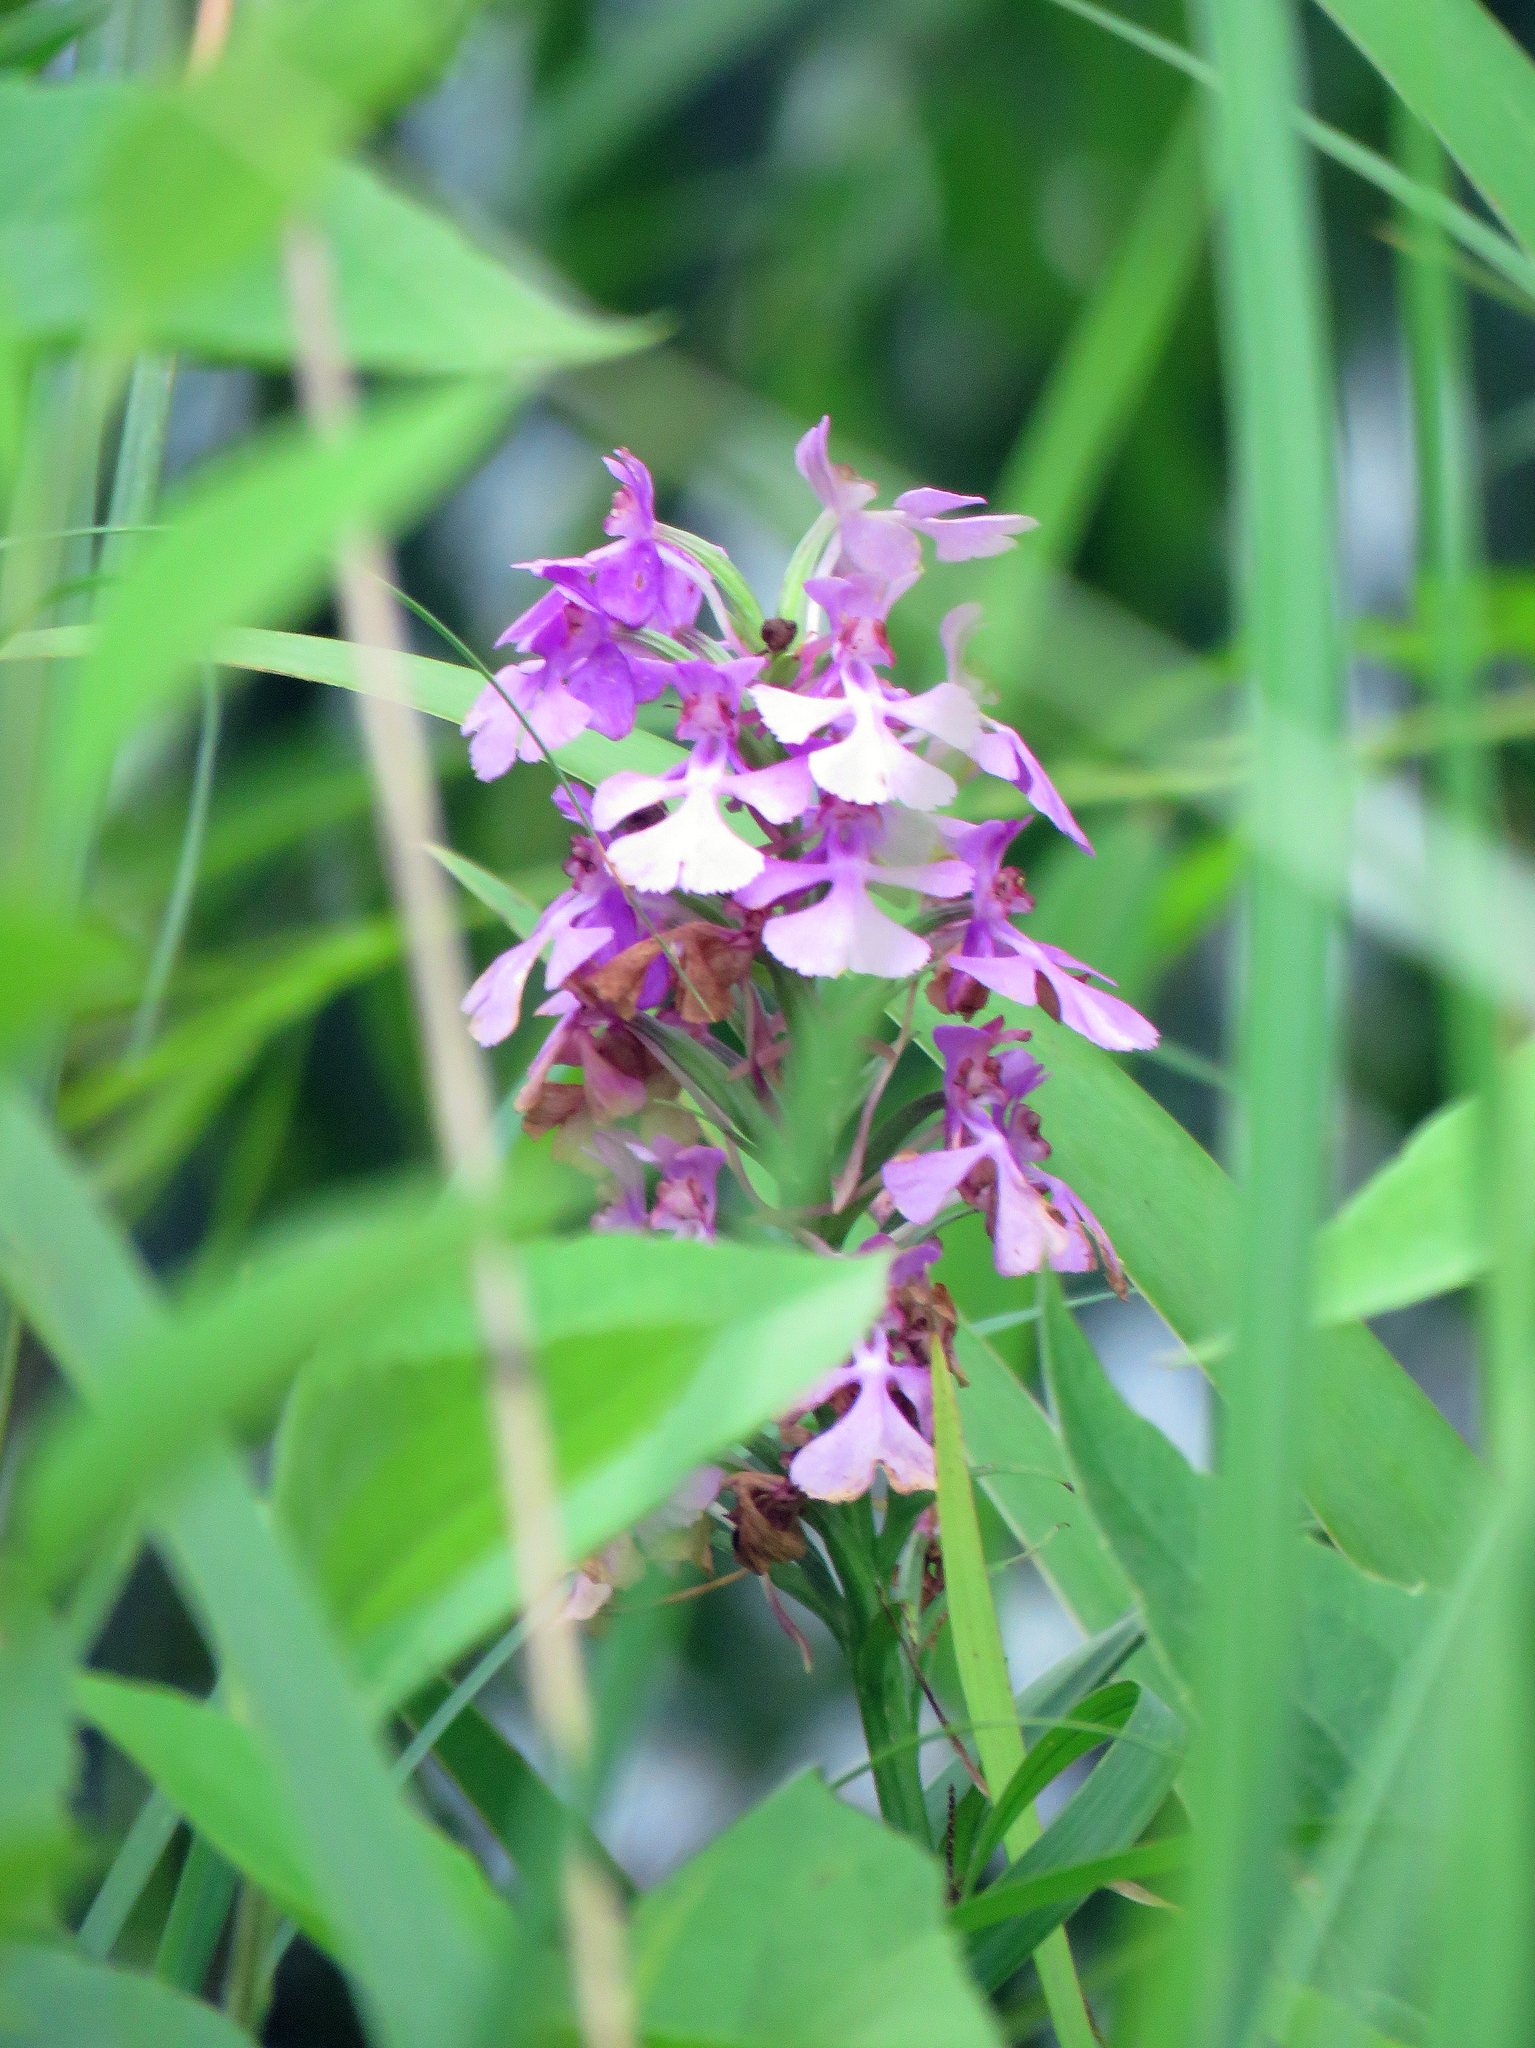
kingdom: Plantae
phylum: Tracheophyta
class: Liliopsida
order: Asparagales
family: Orchidaceae
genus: Platanthera
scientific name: Platanthera peramoena
